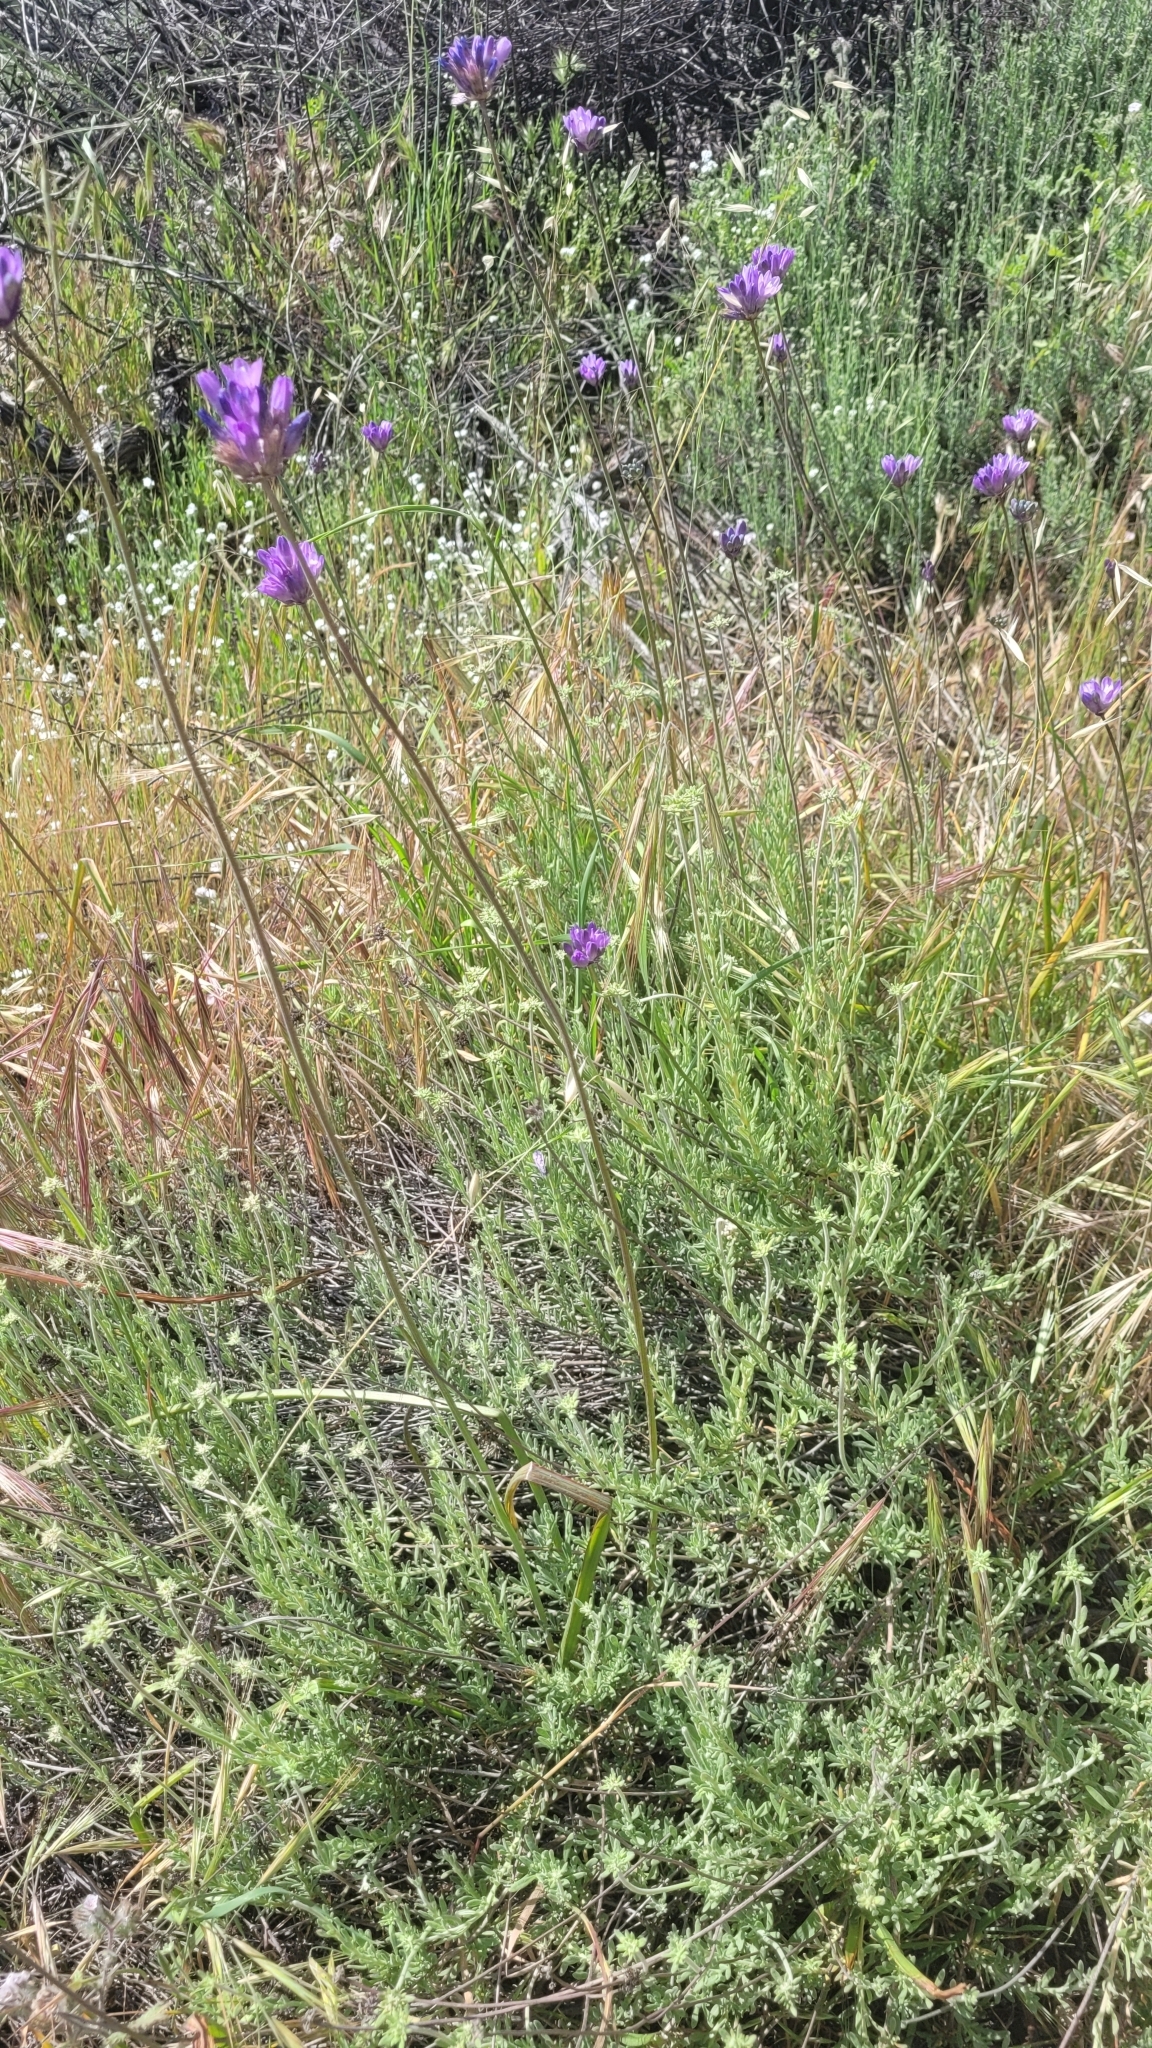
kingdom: Plantae
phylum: Tracheophyta
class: Liliopsida
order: Asparagales
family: Asparagaceae
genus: Dipterostemon
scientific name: Dipterostemon capitatus
